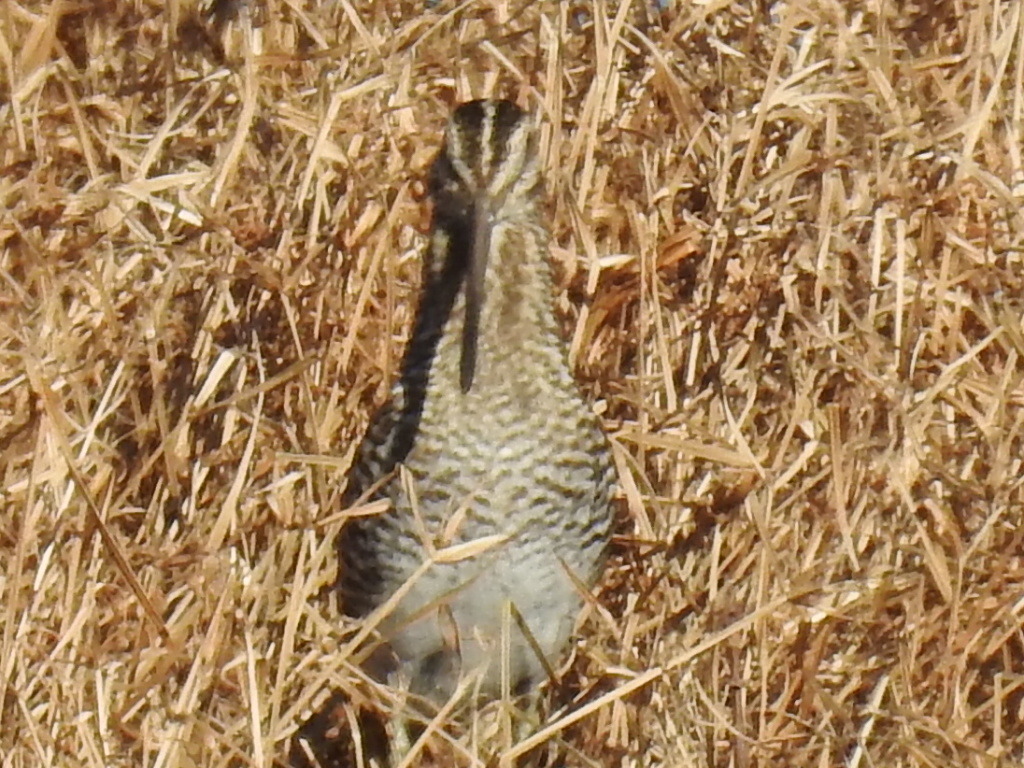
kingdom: Animalia
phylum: Chordata
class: Aves
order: Charadriiformes
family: Scolopacidae
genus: Gallinago
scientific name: Gallinago delicata
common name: Wilson's snipe
